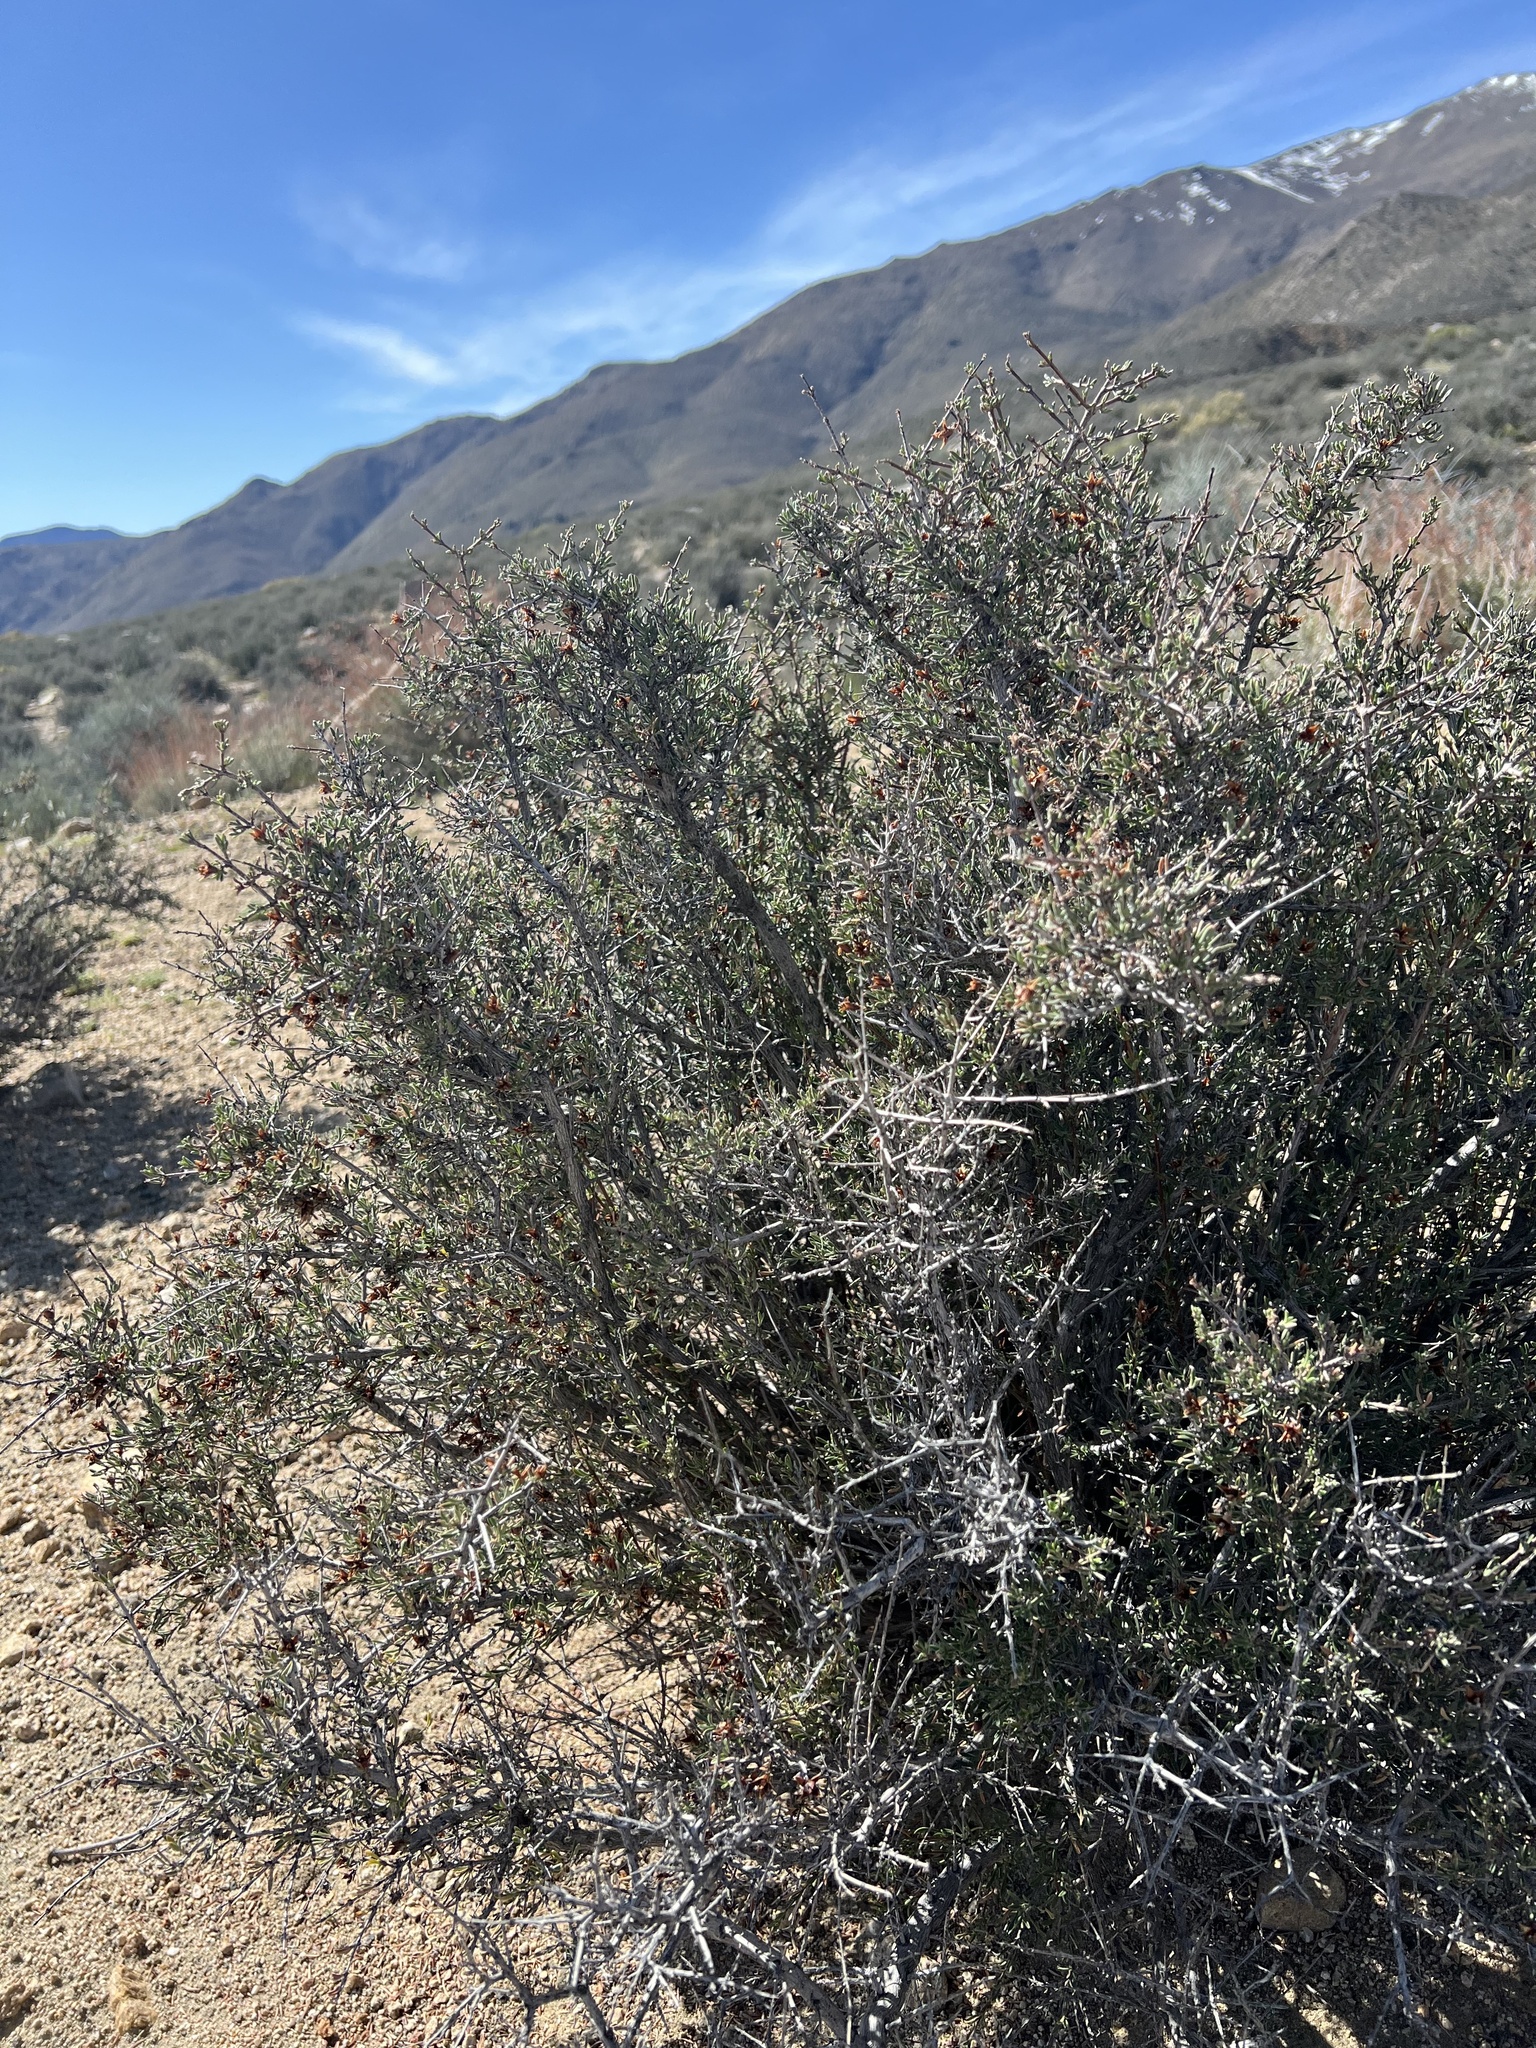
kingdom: Plantae
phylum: Tracheophyta
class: Magnoliopsida
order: Rosales
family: Rosaceae
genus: Coleogyne
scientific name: Coleogyne ramosissima
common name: Blackbrush
